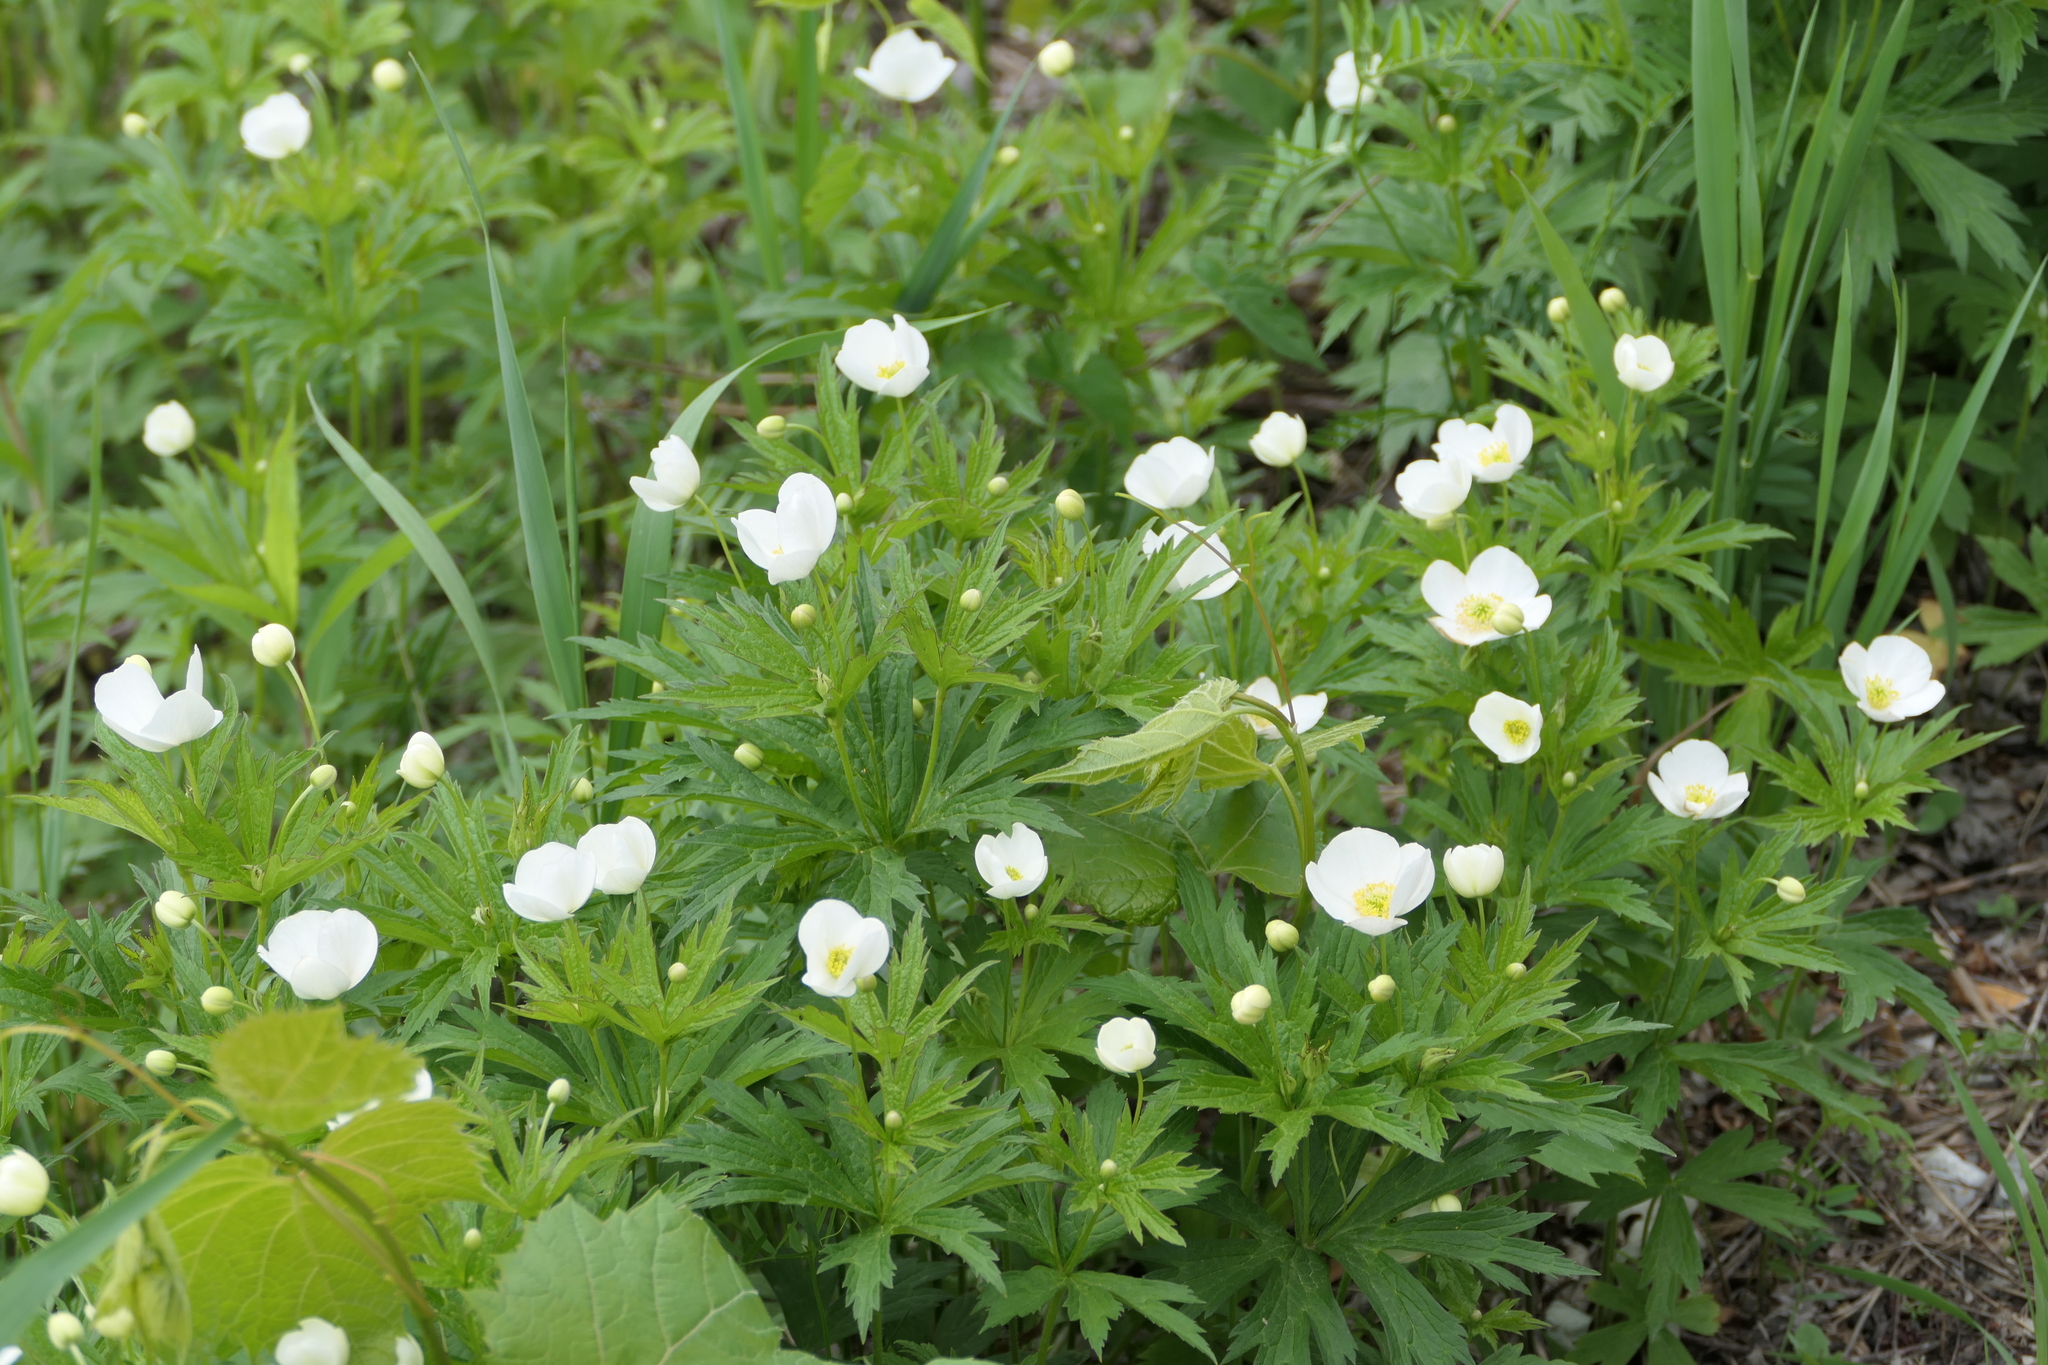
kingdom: Plantae
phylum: Tracheophyta
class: Magnoliopsida
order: Ranunculales
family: Ranunculaceae
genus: Anemonastrum
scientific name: Anemonastrum canadense
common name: Canada anemone
